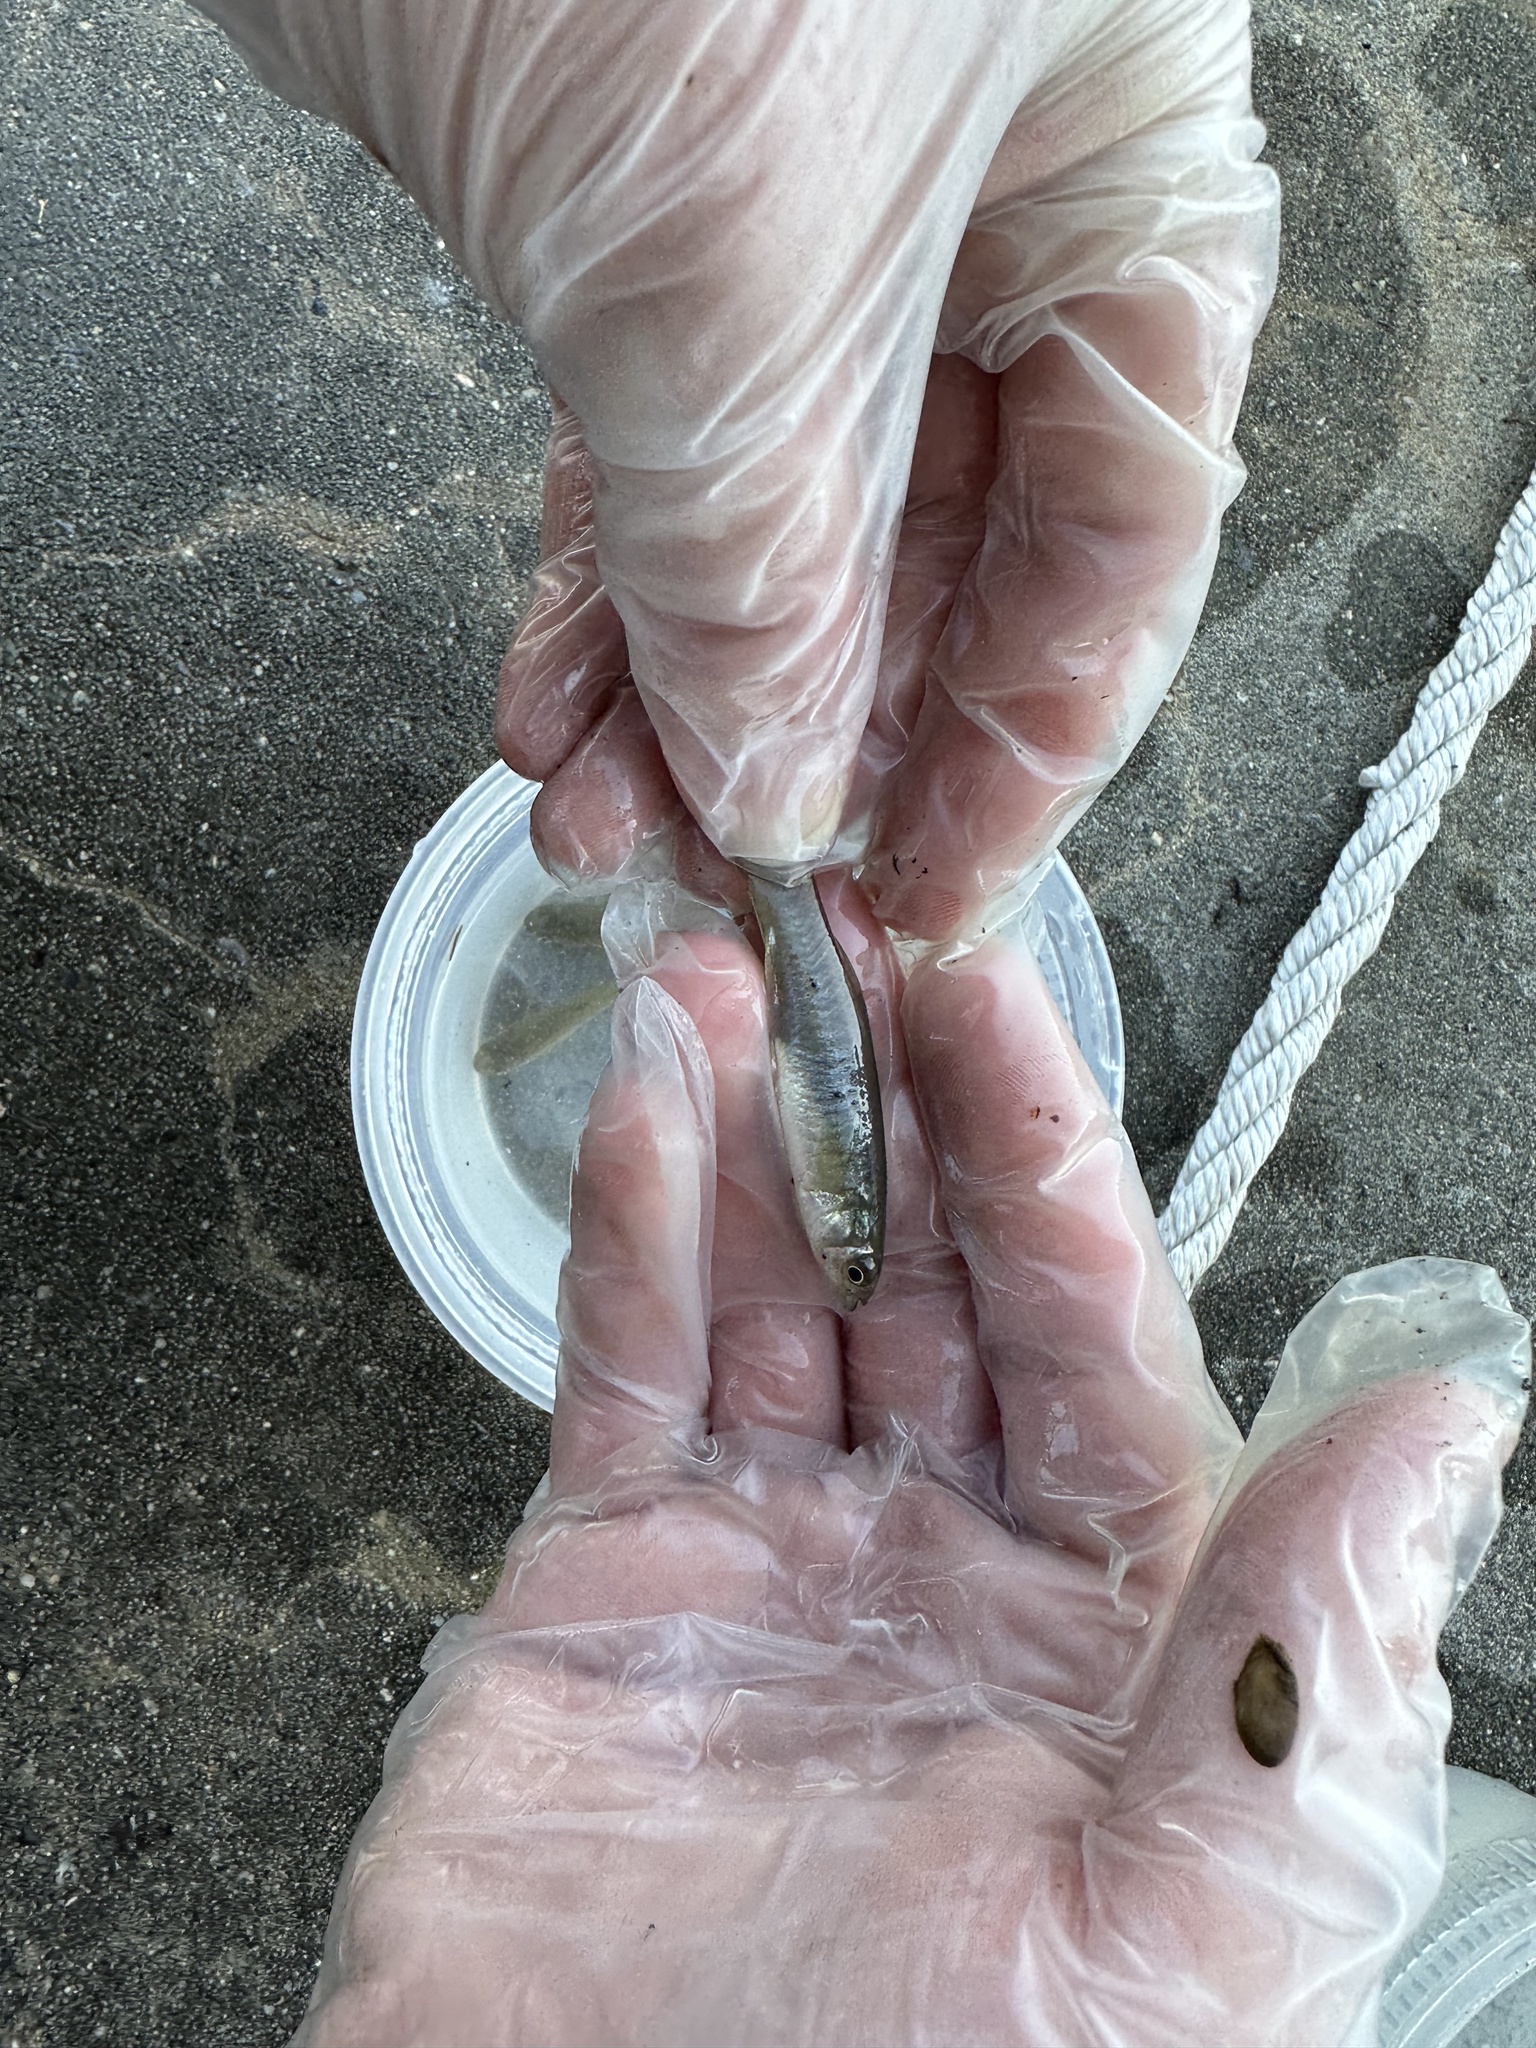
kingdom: Animalia
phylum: Chordata
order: Cyprinodontiformes
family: Fundulidae
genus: Fundulus
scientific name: Fundulus diaphanus
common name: Banded killifish
